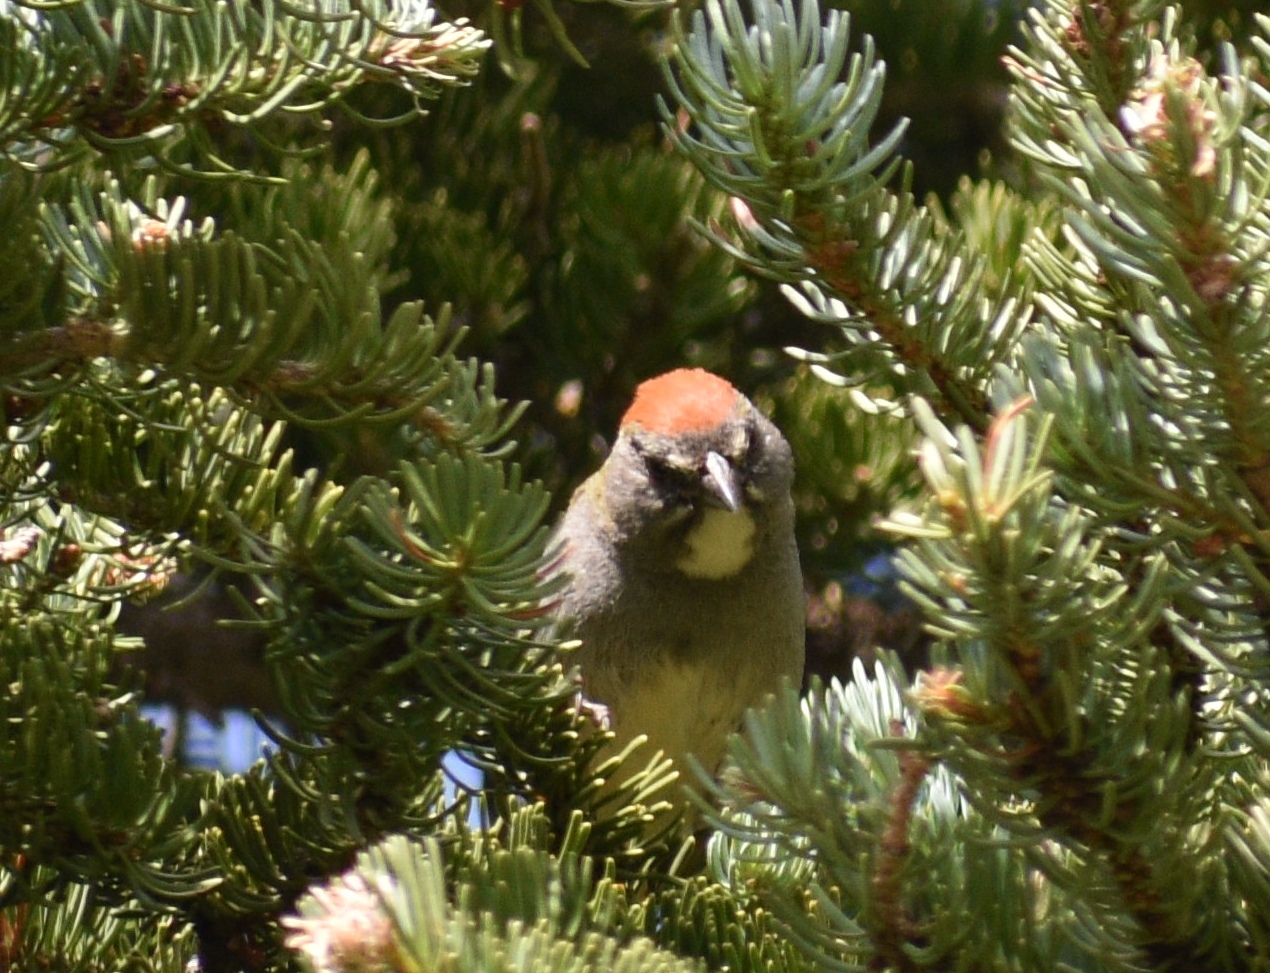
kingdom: Animalia
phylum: Chordata
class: Aves
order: Passeriformes
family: Passerellidae
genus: Pipilo
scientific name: Pipilo chlorurus
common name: Green-tailed towhee
